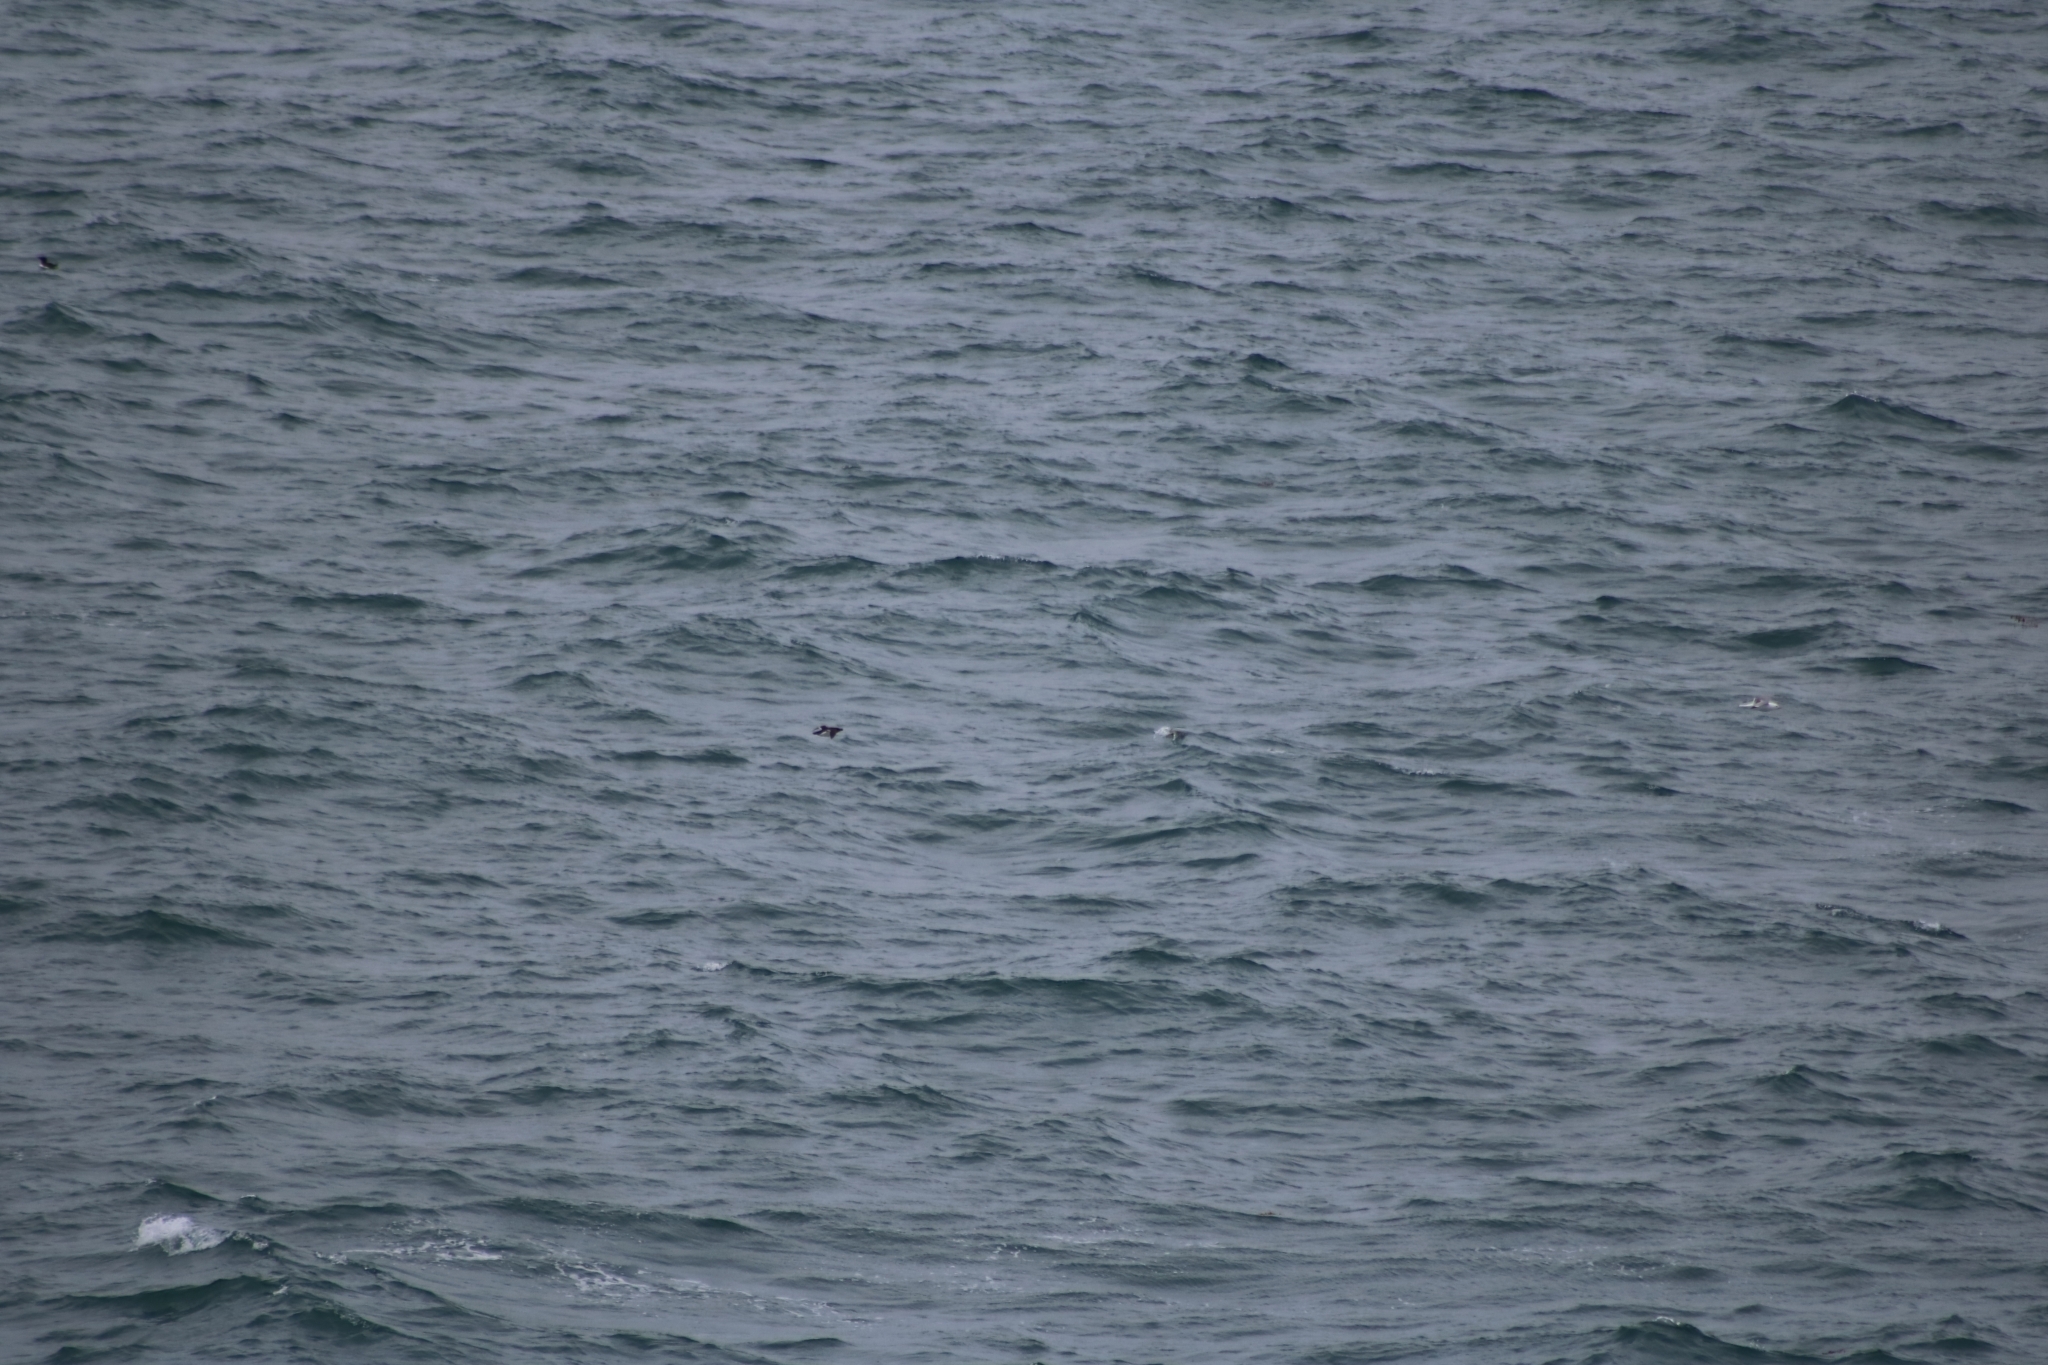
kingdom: Animalia
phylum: Chordata
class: Aves
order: Charadriiformes
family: Alcidae
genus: Alca
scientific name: Alca torda
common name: Razorbill
